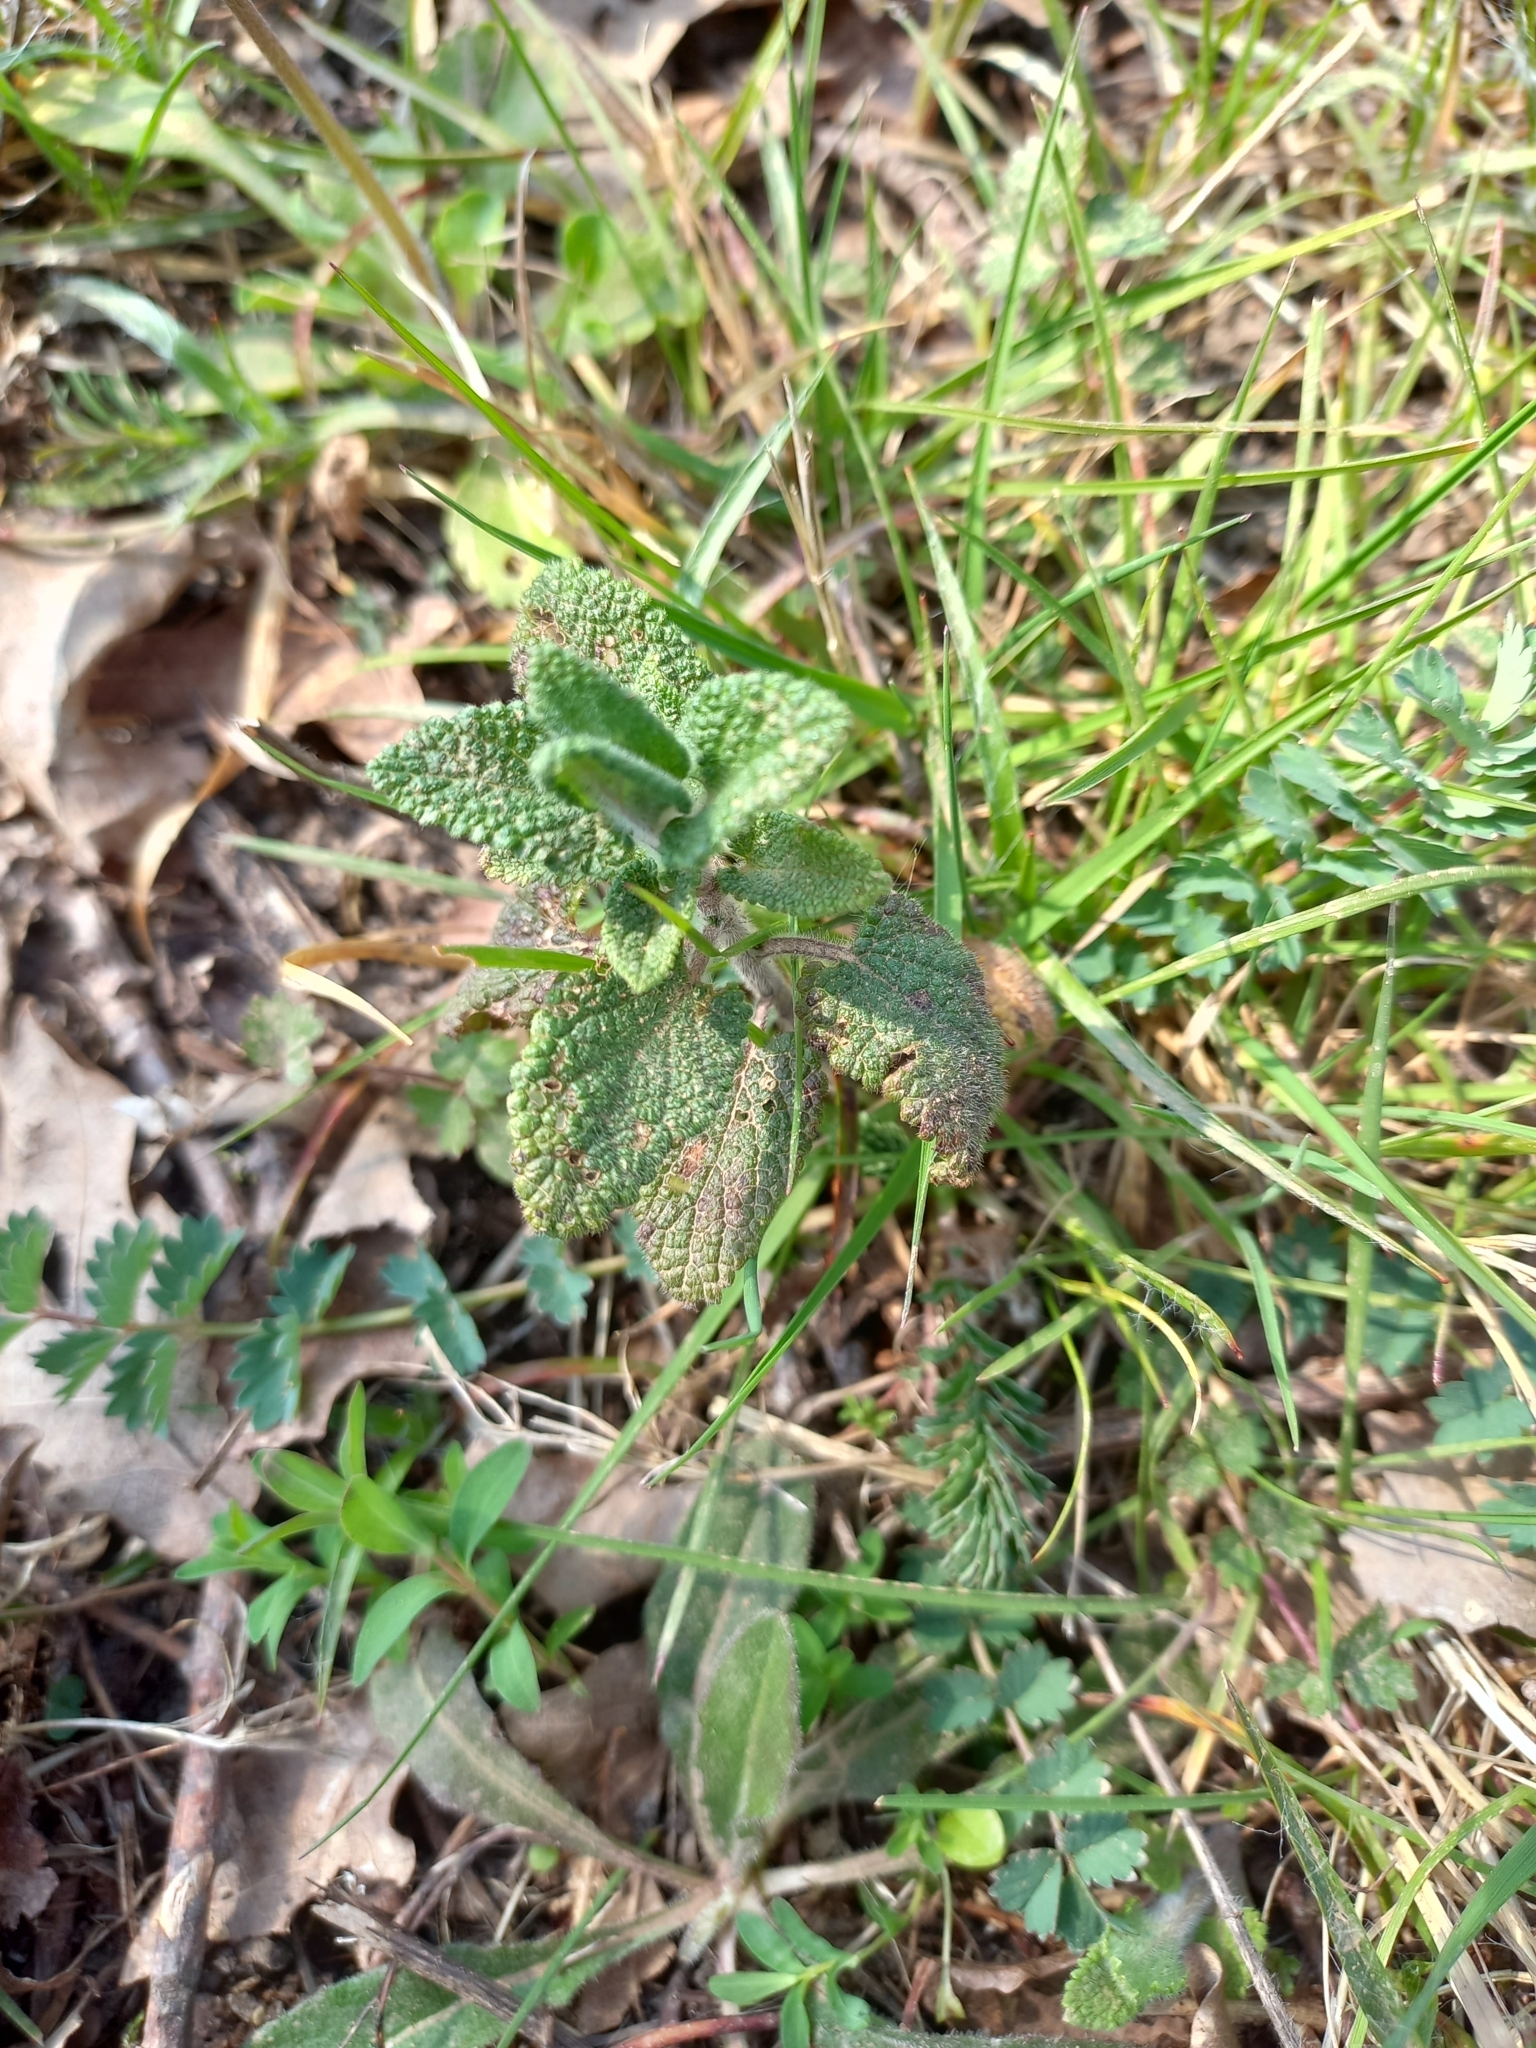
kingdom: Plantae
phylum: Tracheophyta
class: Magnoliopsida
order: Lamiales
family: Lamiaceae
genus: Teucrium
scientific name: Teucrium scorodonia
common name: Woodland germander
